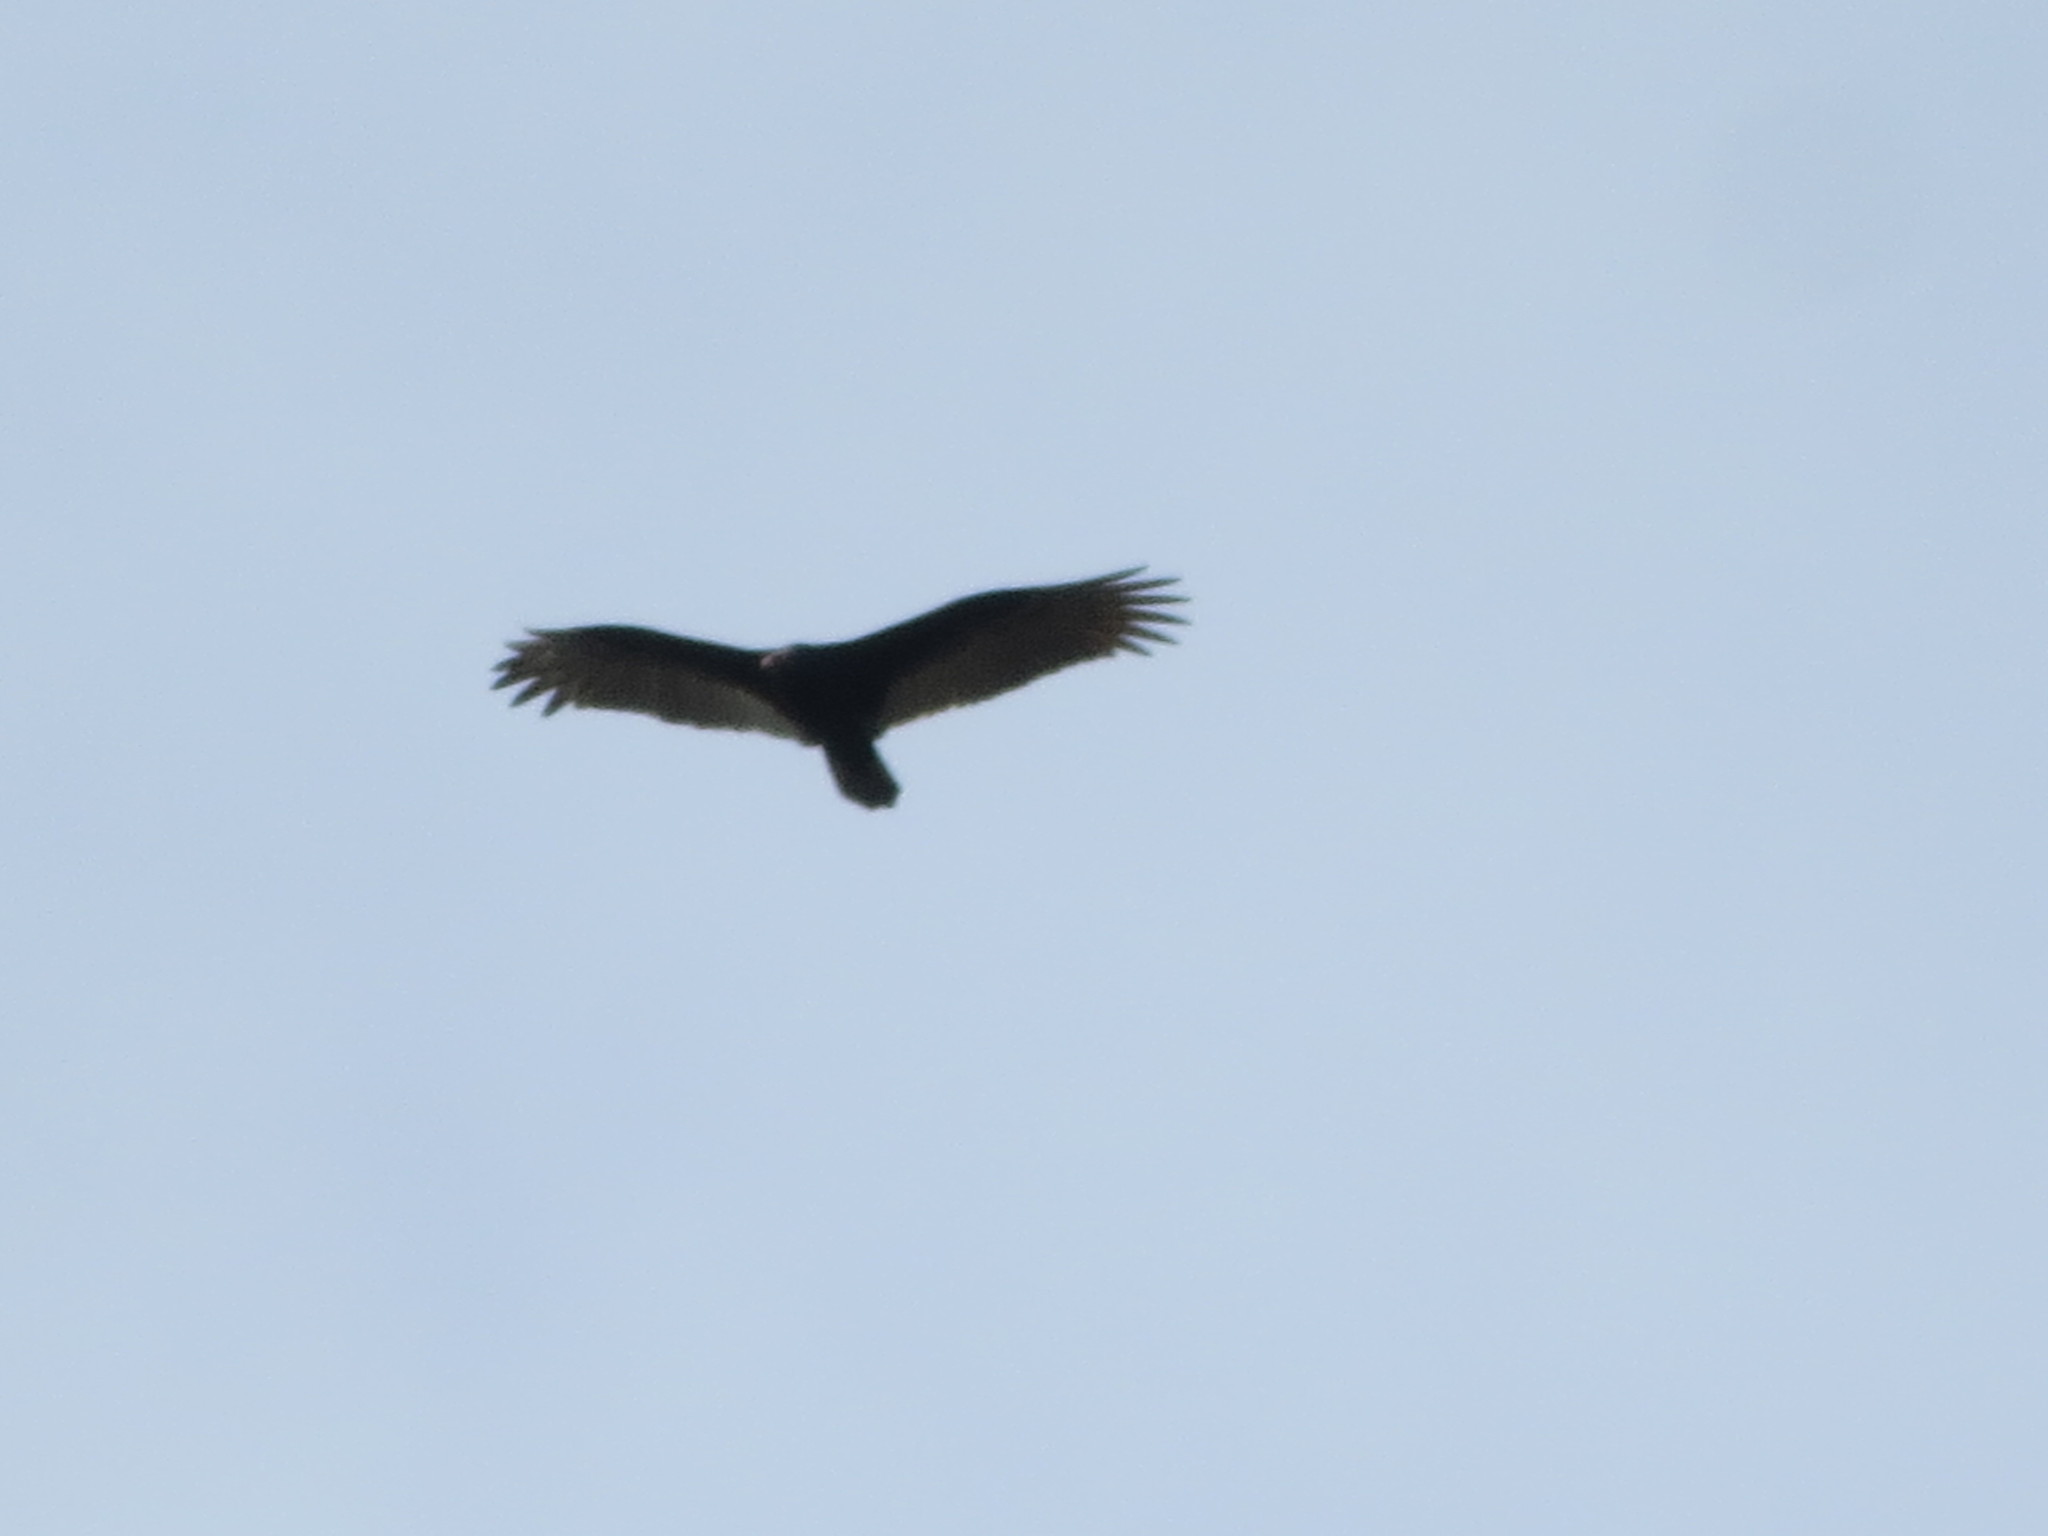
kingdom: Animalia
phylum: Chordata
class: Aves
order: Accipitriformes
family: Cathartidae
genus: Cathartes
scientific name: Cathartes aura
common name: Turkey vulture
